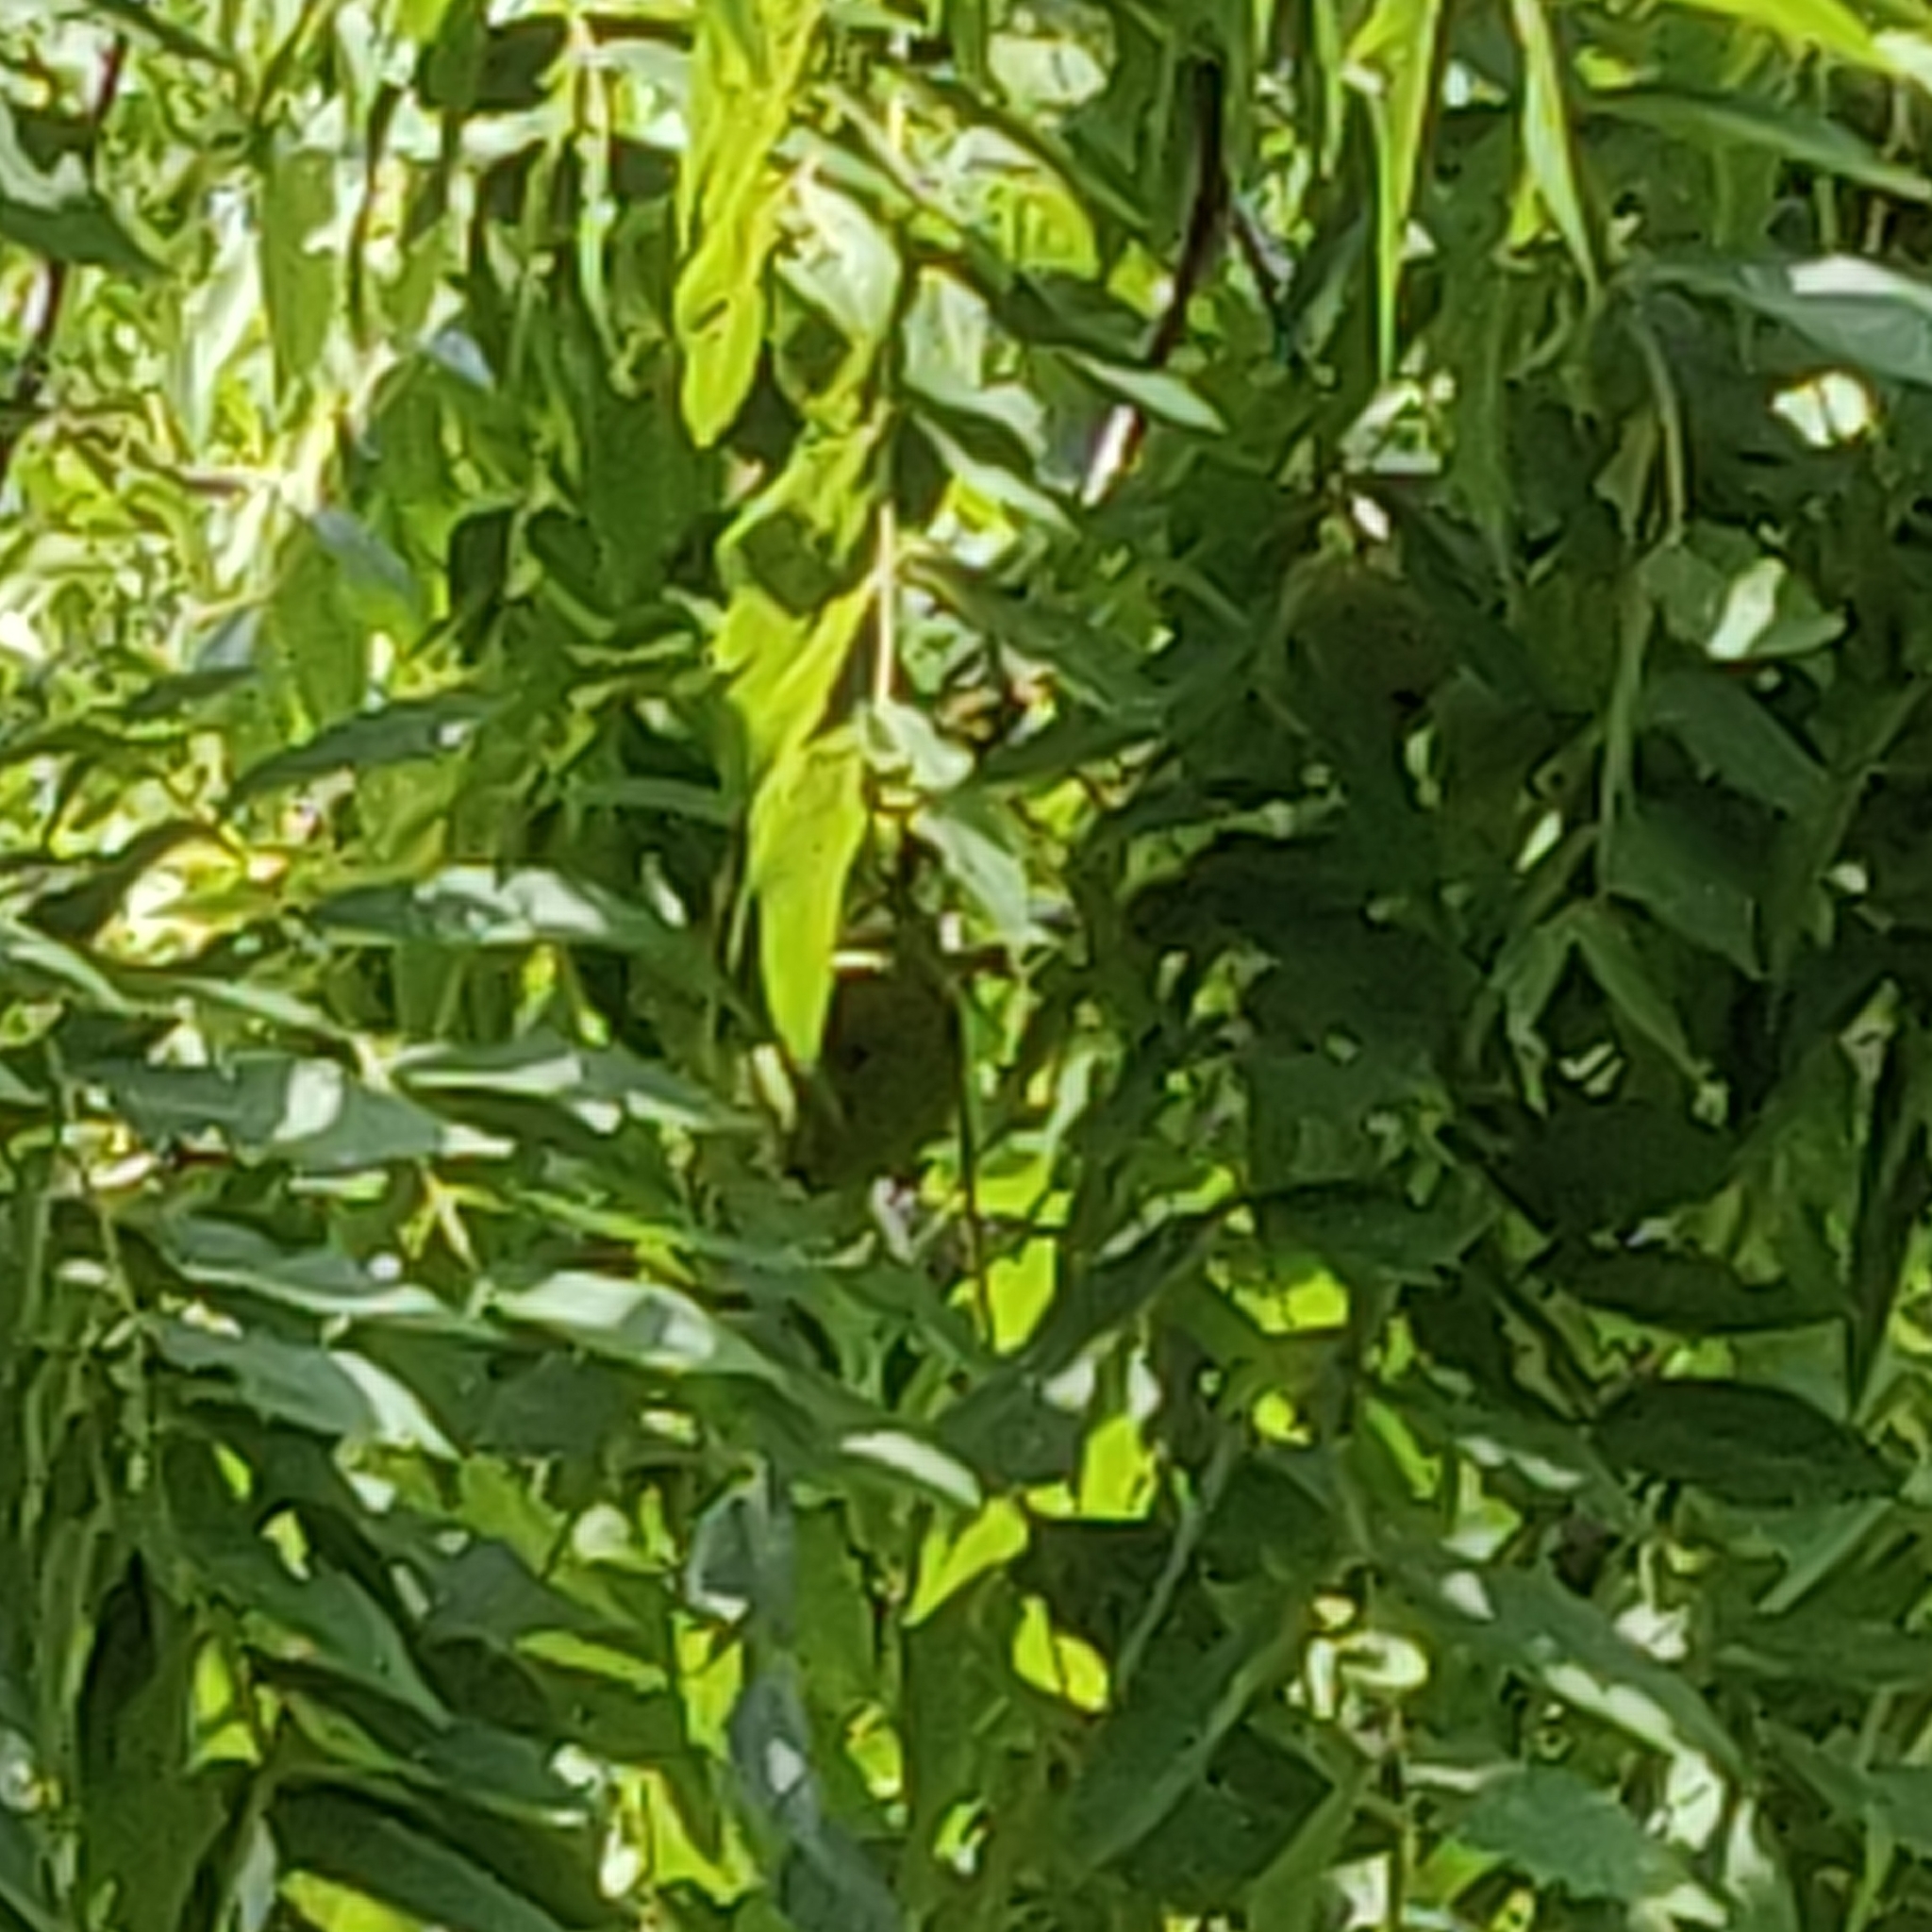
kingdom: Plantae
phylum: Tracheophyta
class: Magnoliopsida
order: Fagales
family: Juglandaceae
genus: Juglans
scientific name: Juglans nigra
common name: Black walnut
